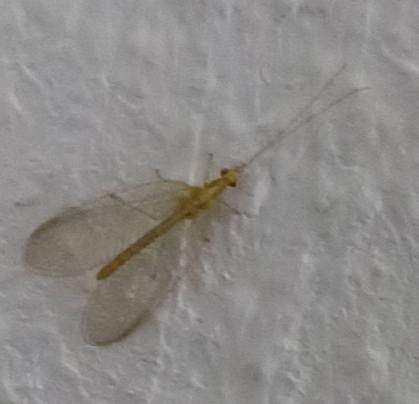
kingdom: Animalia
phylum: Arthropoda
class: Insecta
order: Neuroptera
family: Chrysopidae
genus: Chrysoperla
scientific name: Chrysoperla
